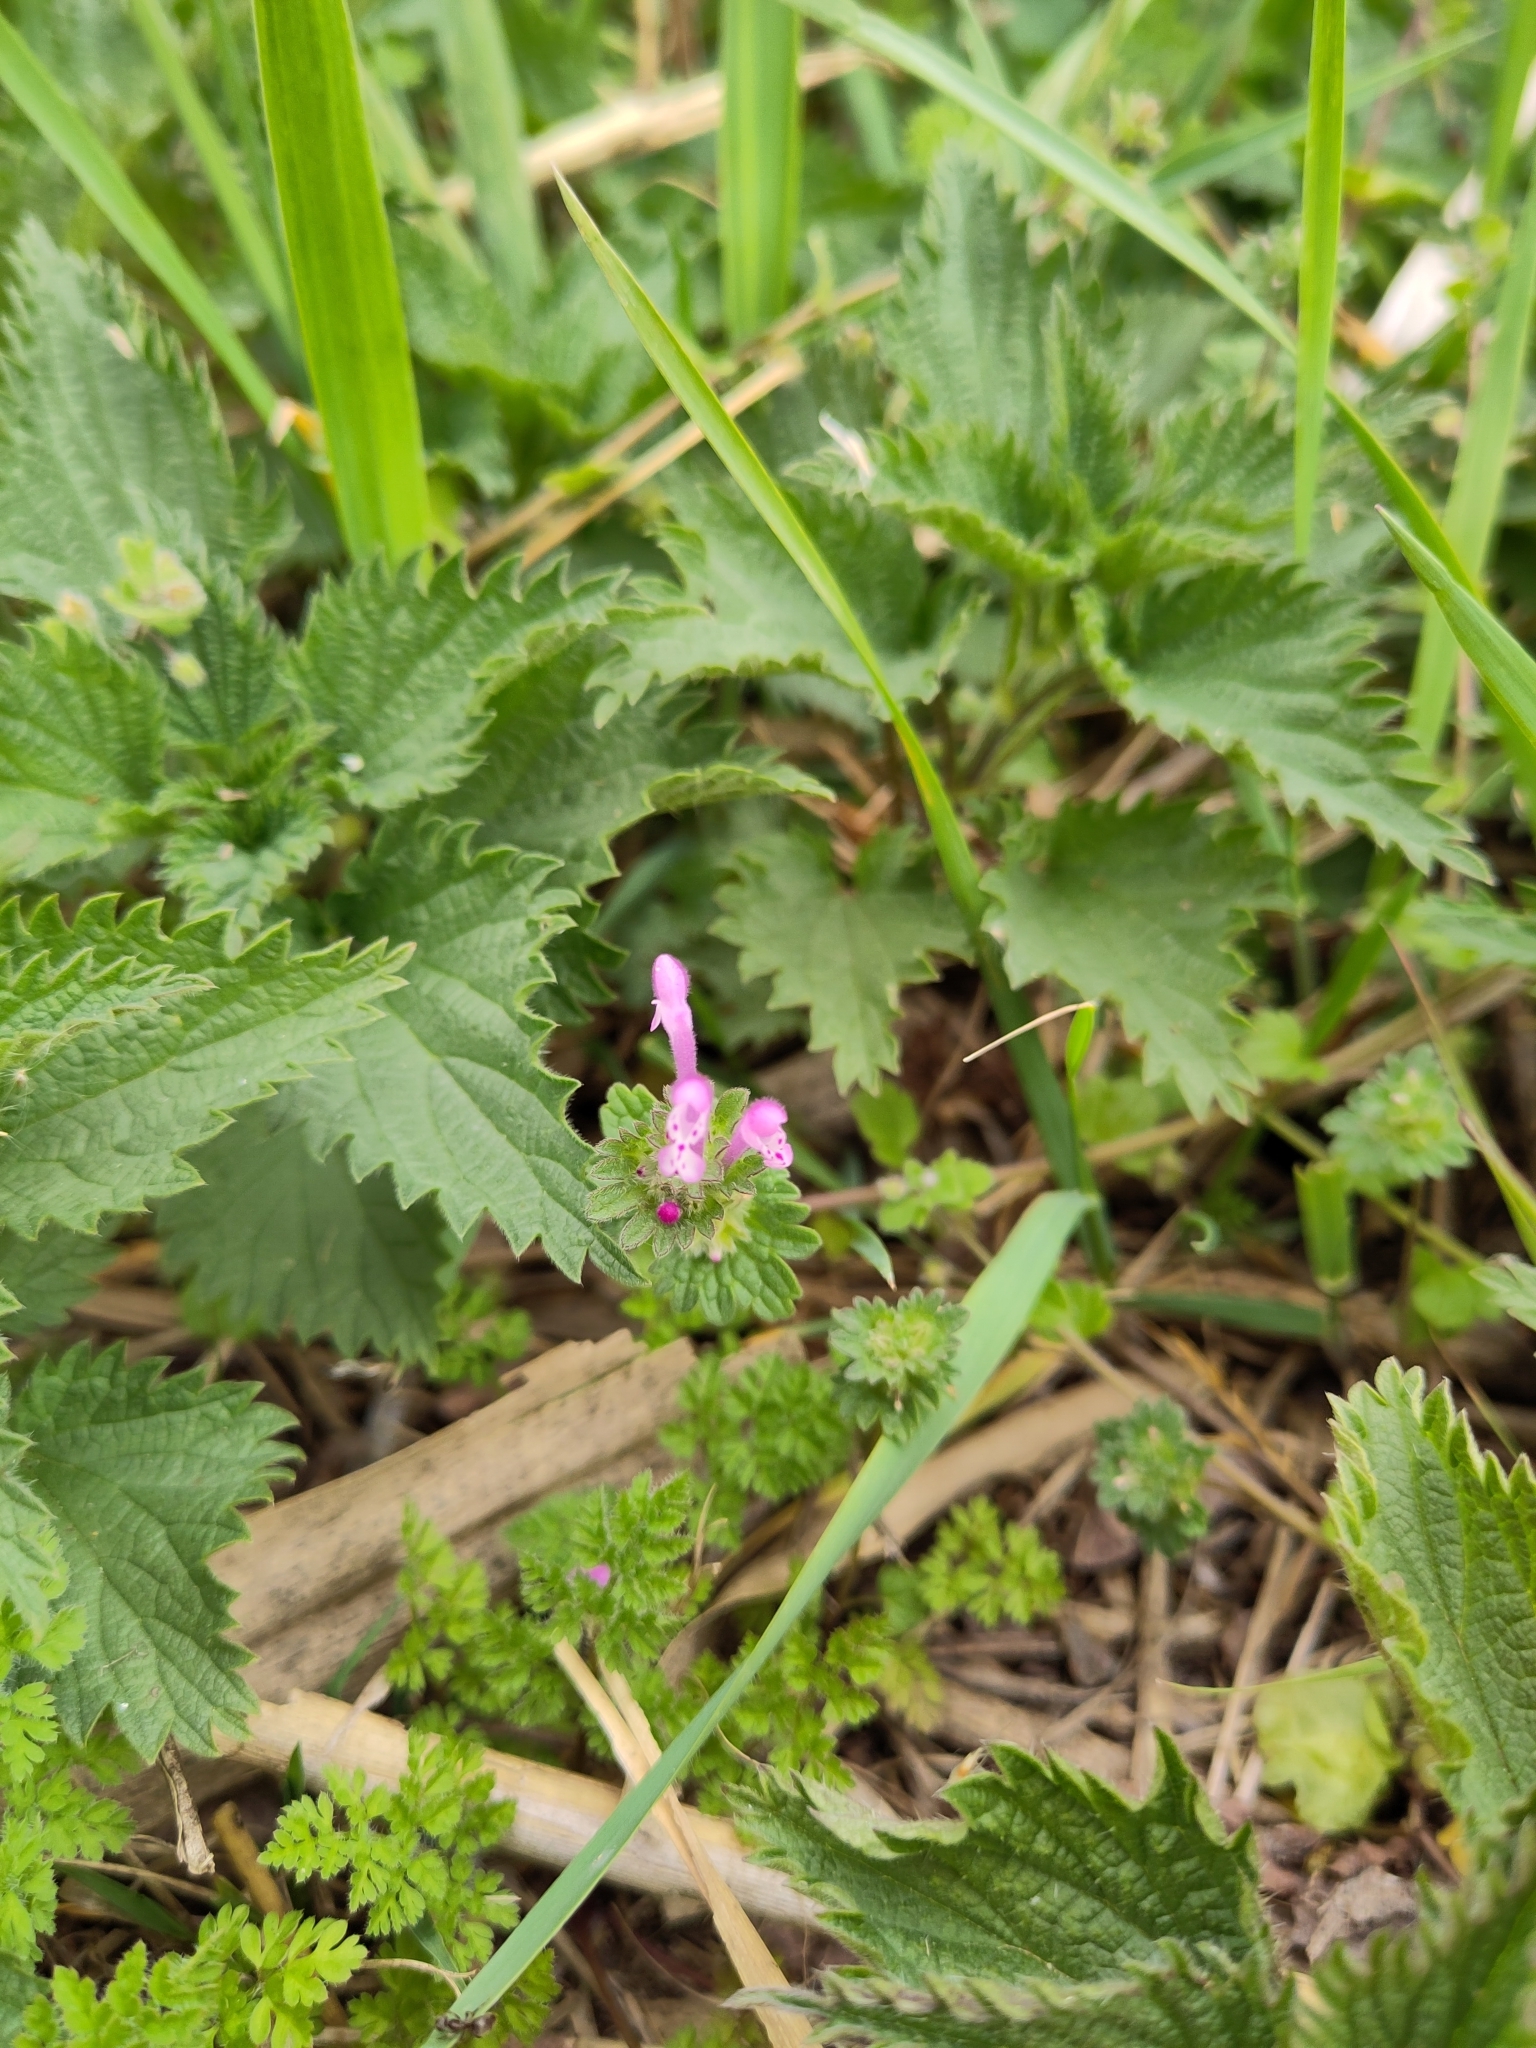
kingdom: Plantae
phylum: Tracheophyta
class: Magnoliopsida
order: Lamiales
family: Lamiaceae
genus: Lamium
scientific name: Lamium amplexicaule
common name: Henbit dead-nettle
